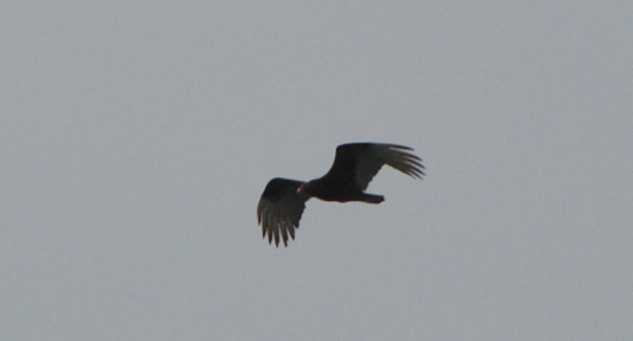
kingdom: Animalia
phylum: Chordata
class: Aves
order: Accipitriformes
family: Cathartidae
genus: Cathartes
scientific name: Cathartes aura
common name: Turkey vulture
